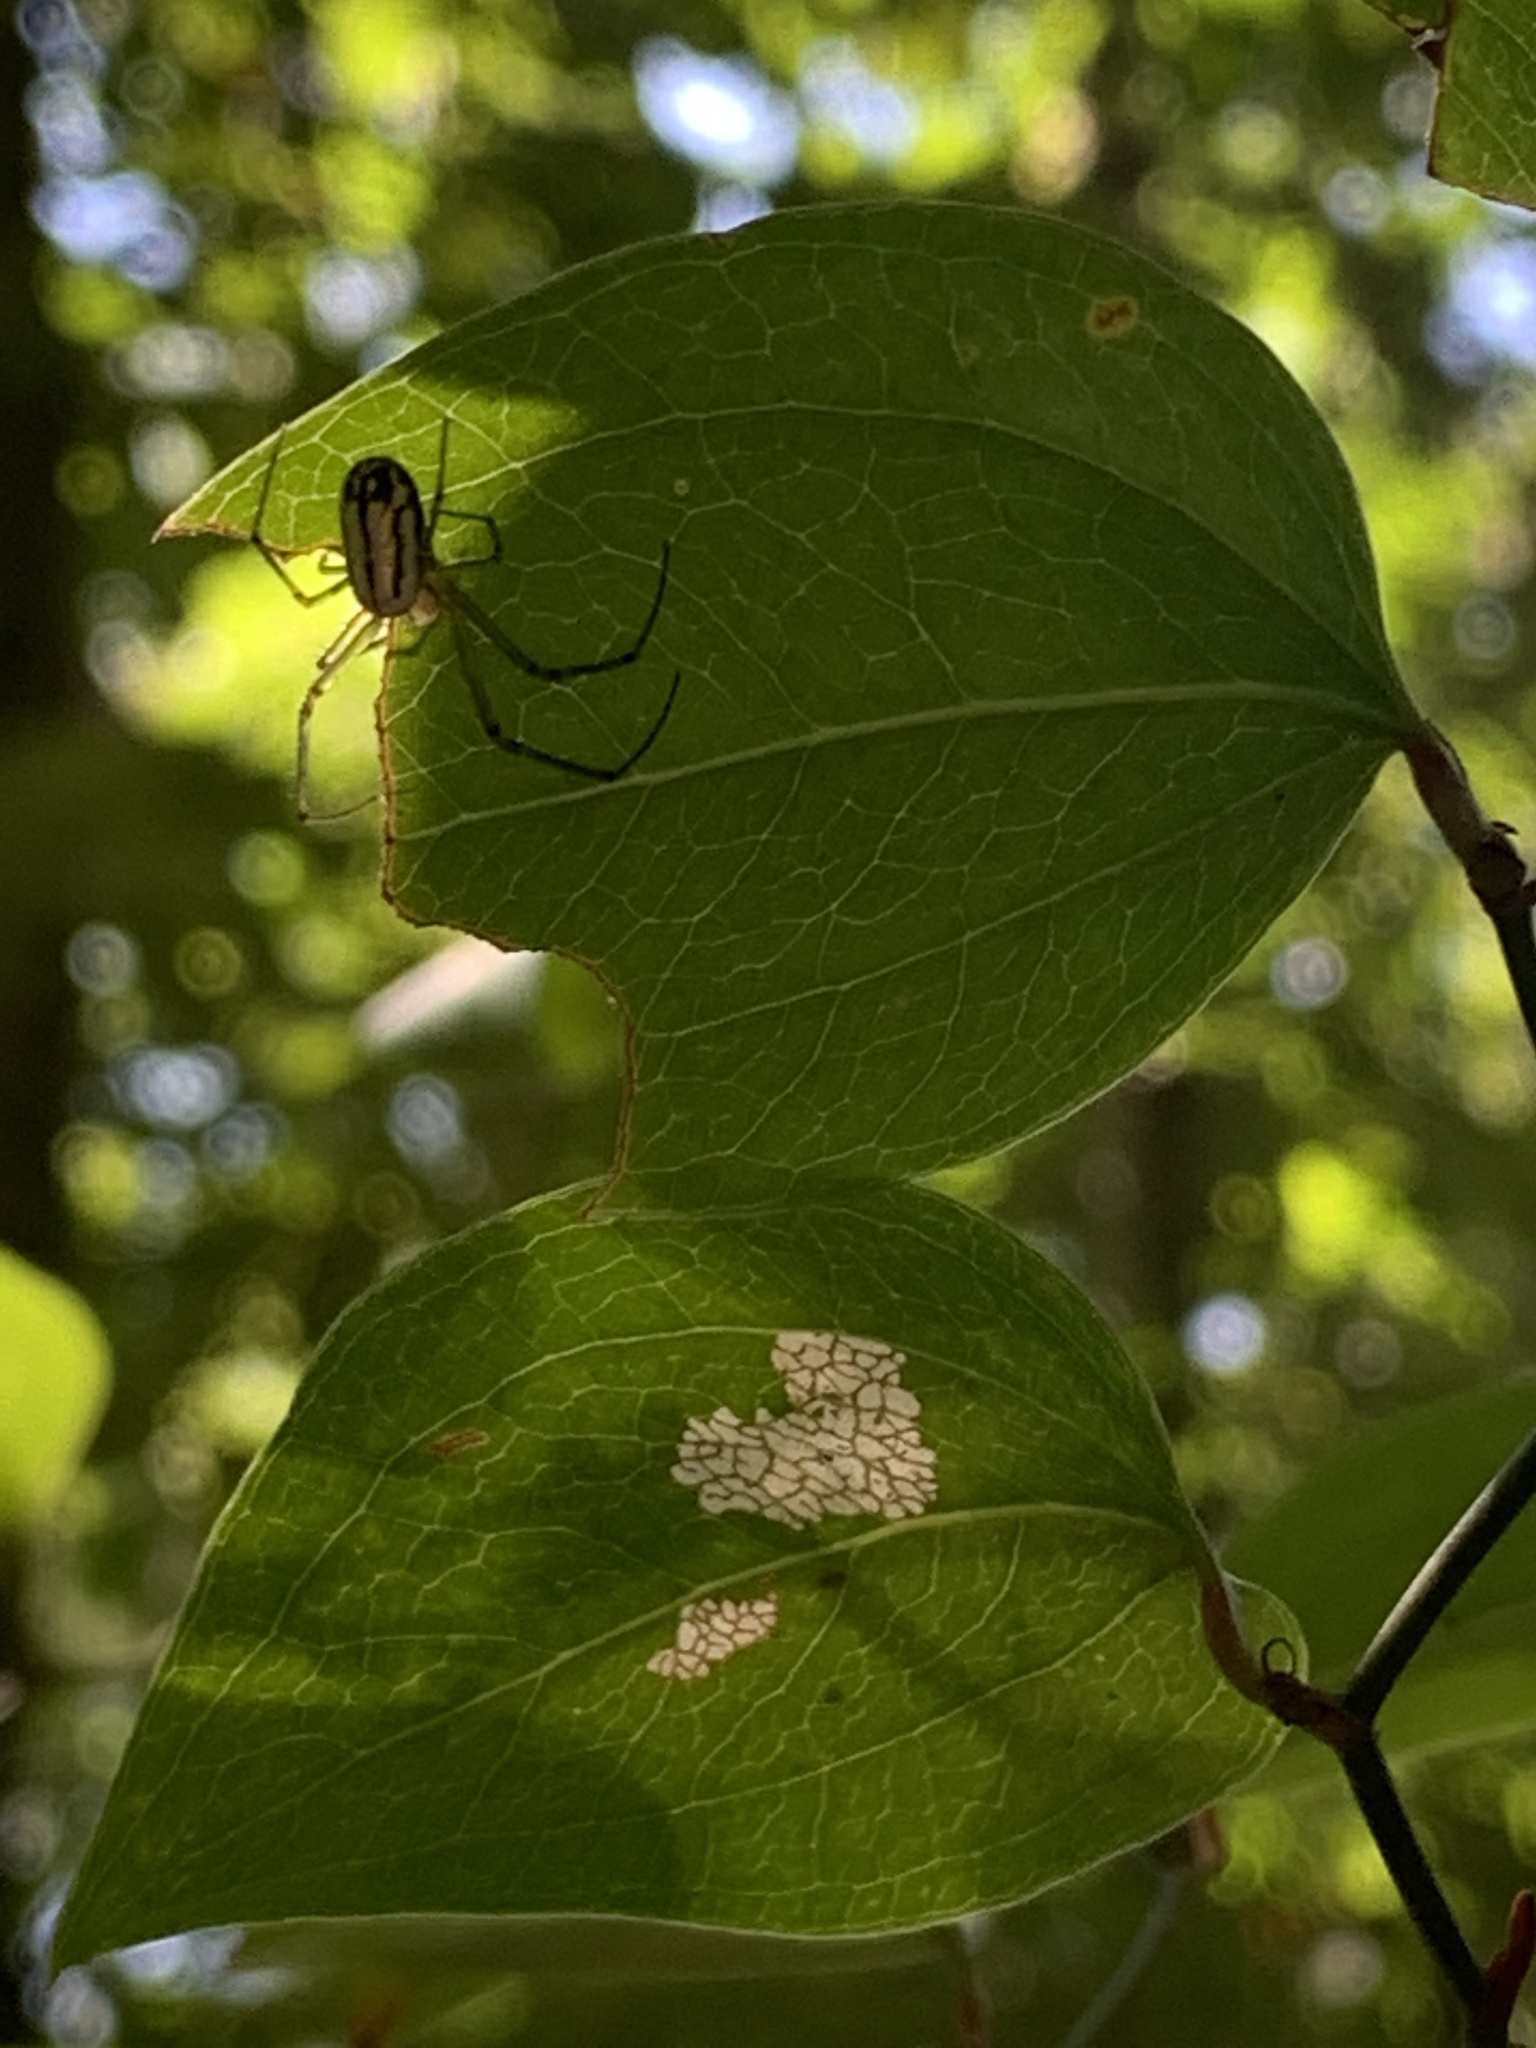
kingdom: Animalia
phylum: Arthropoda
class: Arachnida
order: Araneae
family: Tetragnathidae
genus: Leucauge
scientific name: Leucauge venusta
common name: Longjawed orb weavers
